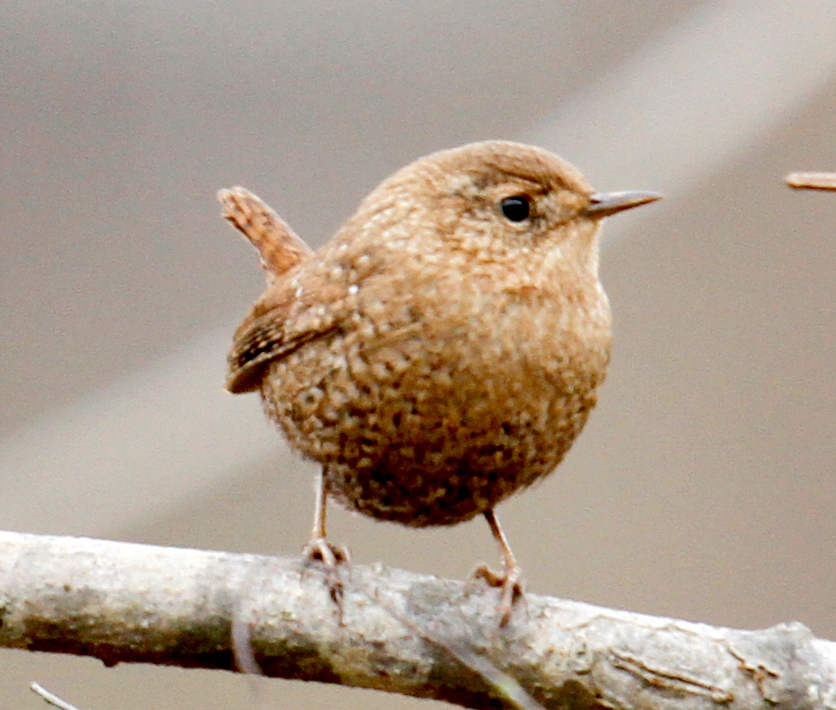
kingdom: Animalia
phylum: Chordata
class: Aves
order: Passeriformes
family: Troglodytidae
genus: Troglodytes
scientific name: Troglodytes hiemalis
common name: Winter wren
